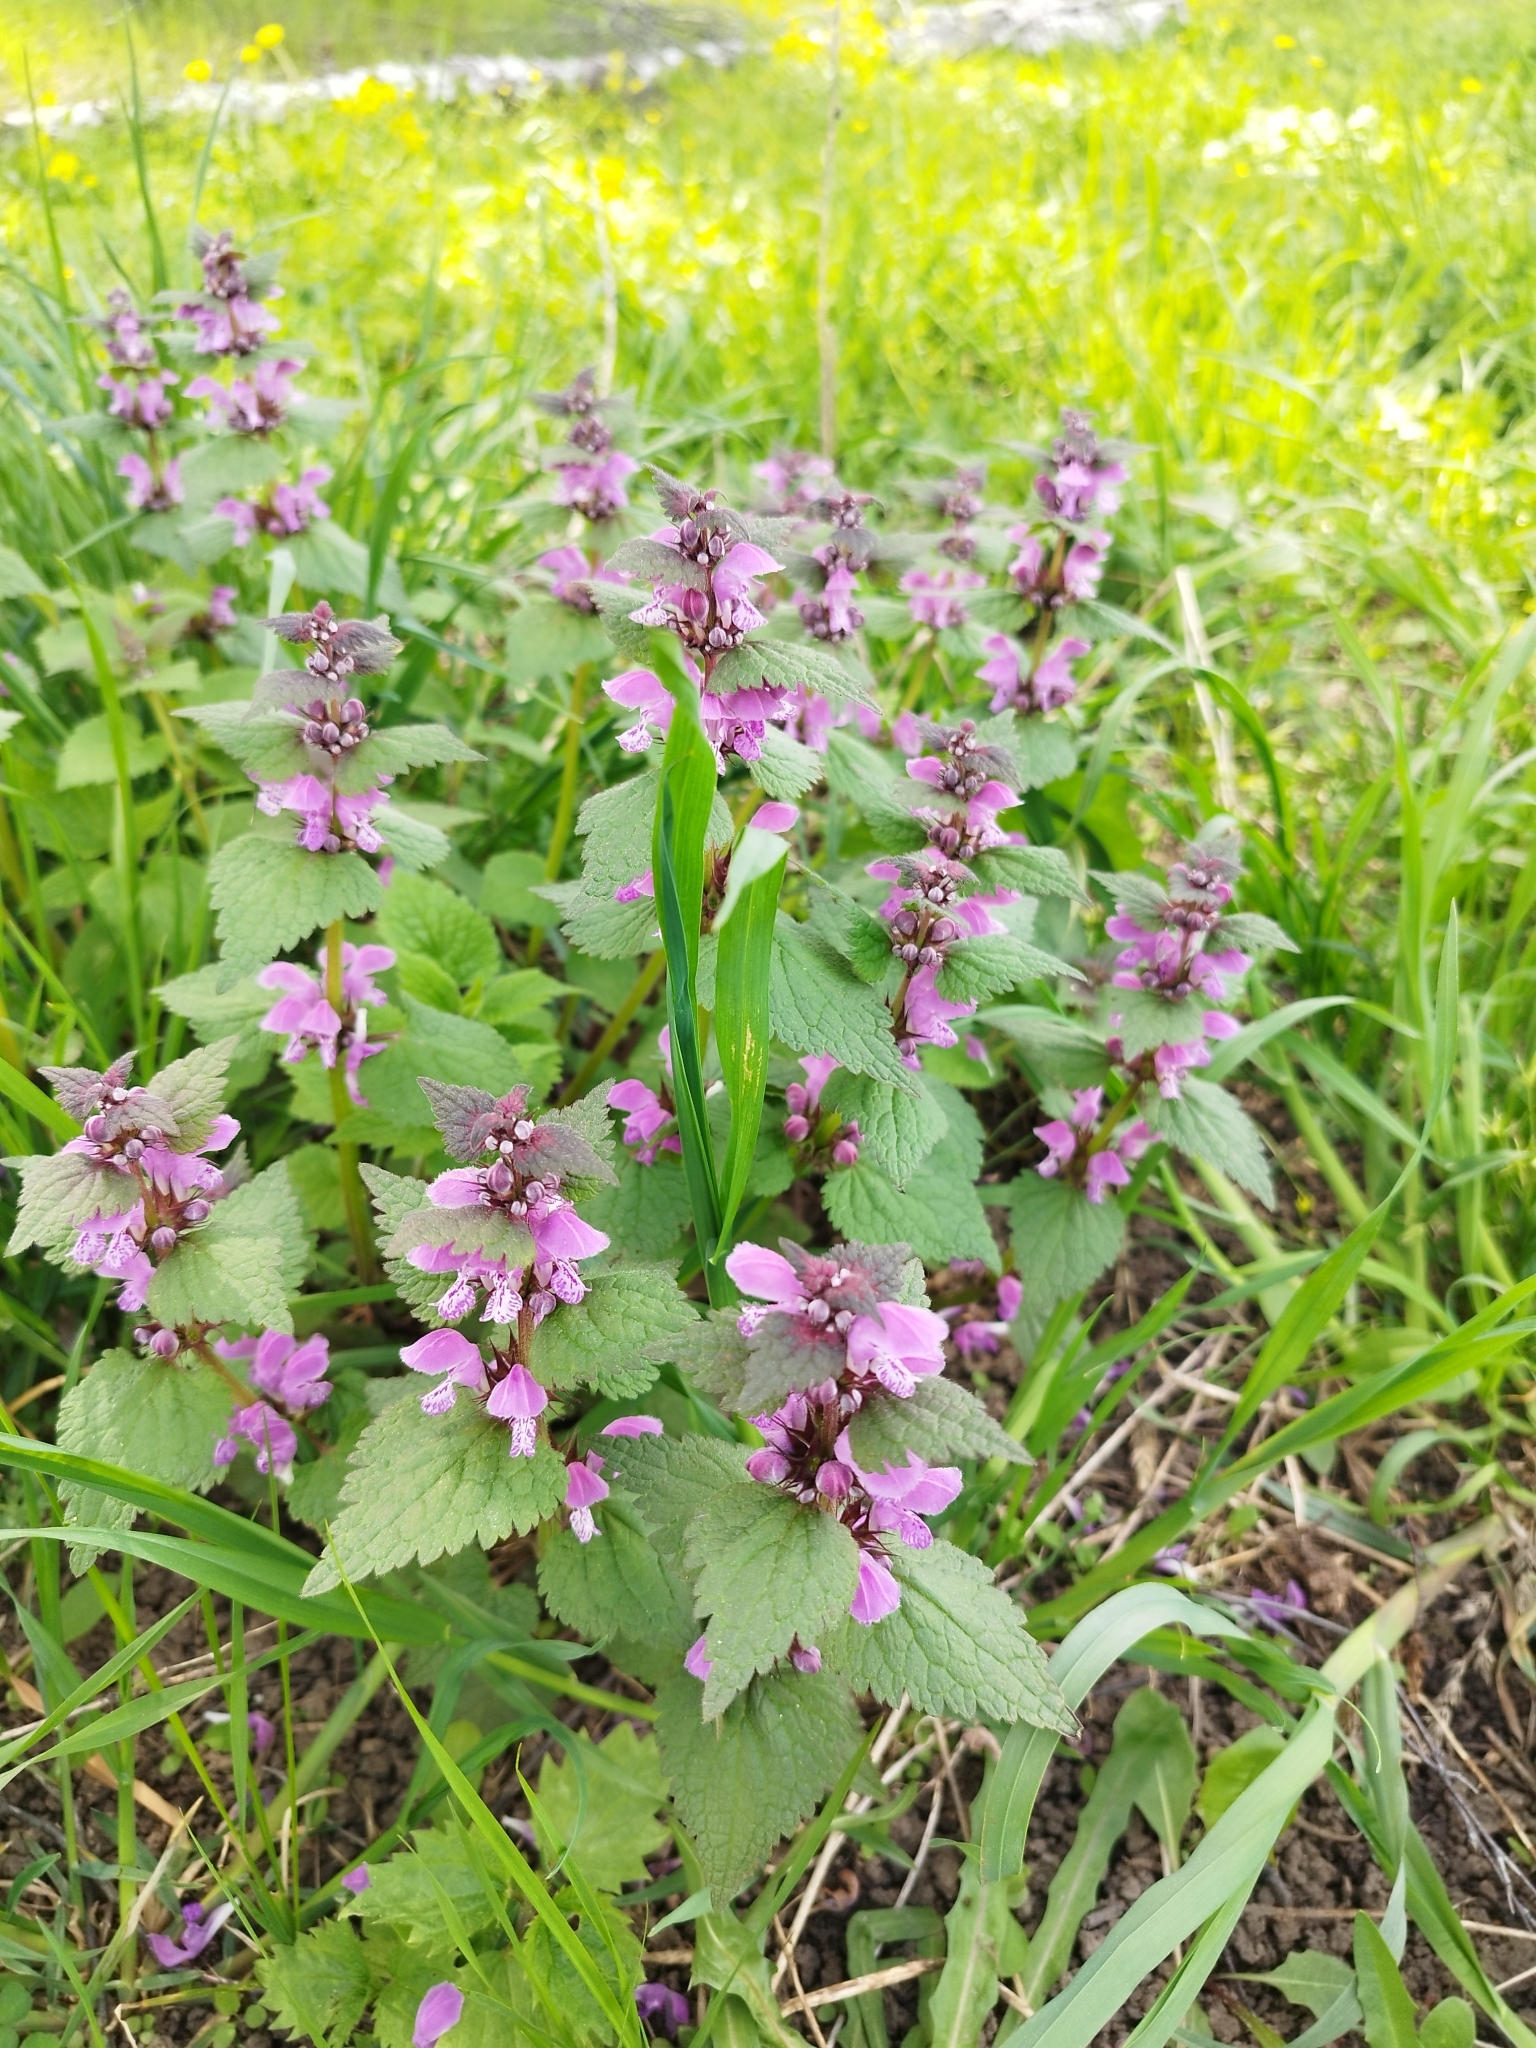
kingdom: Plantae
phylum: Tracheophyta
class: Magnoliopsida
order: Lamiales
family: Lamiaceae
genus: Lamium
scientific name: Lamium maculatum
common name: Spotted dead-nettle
